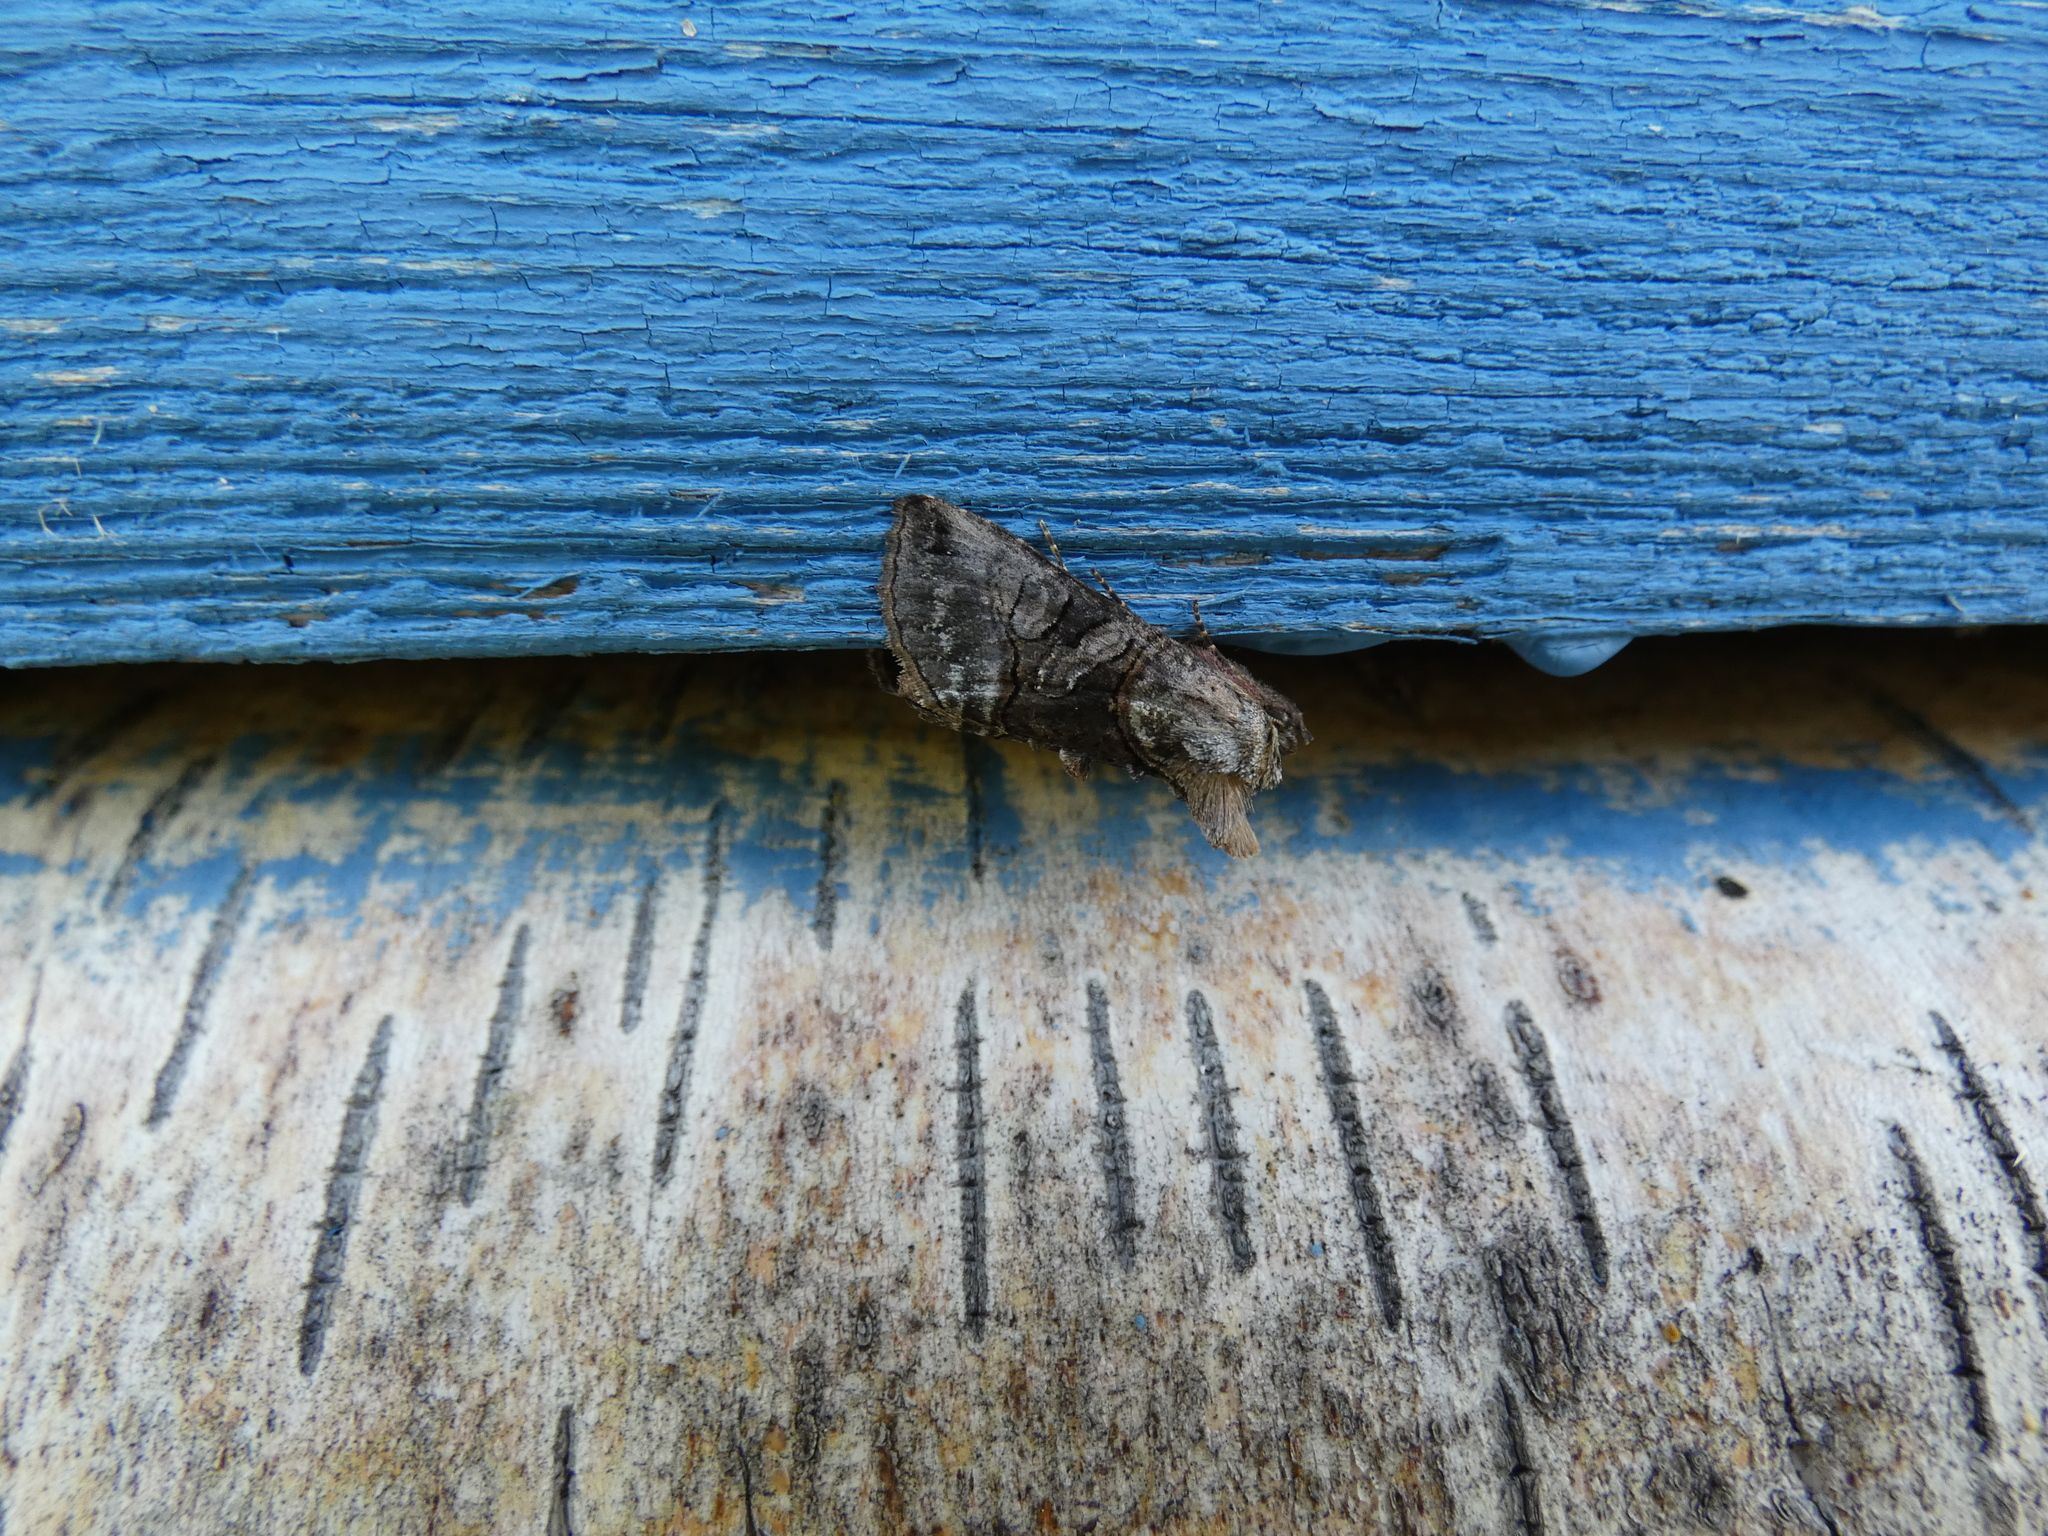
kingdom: Animalia
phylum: Arthropoda
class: Insecta
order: Lepidoptera
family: Noctuidae
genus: Abrostola
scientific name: Abrostola tripartita
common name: Spectacle
